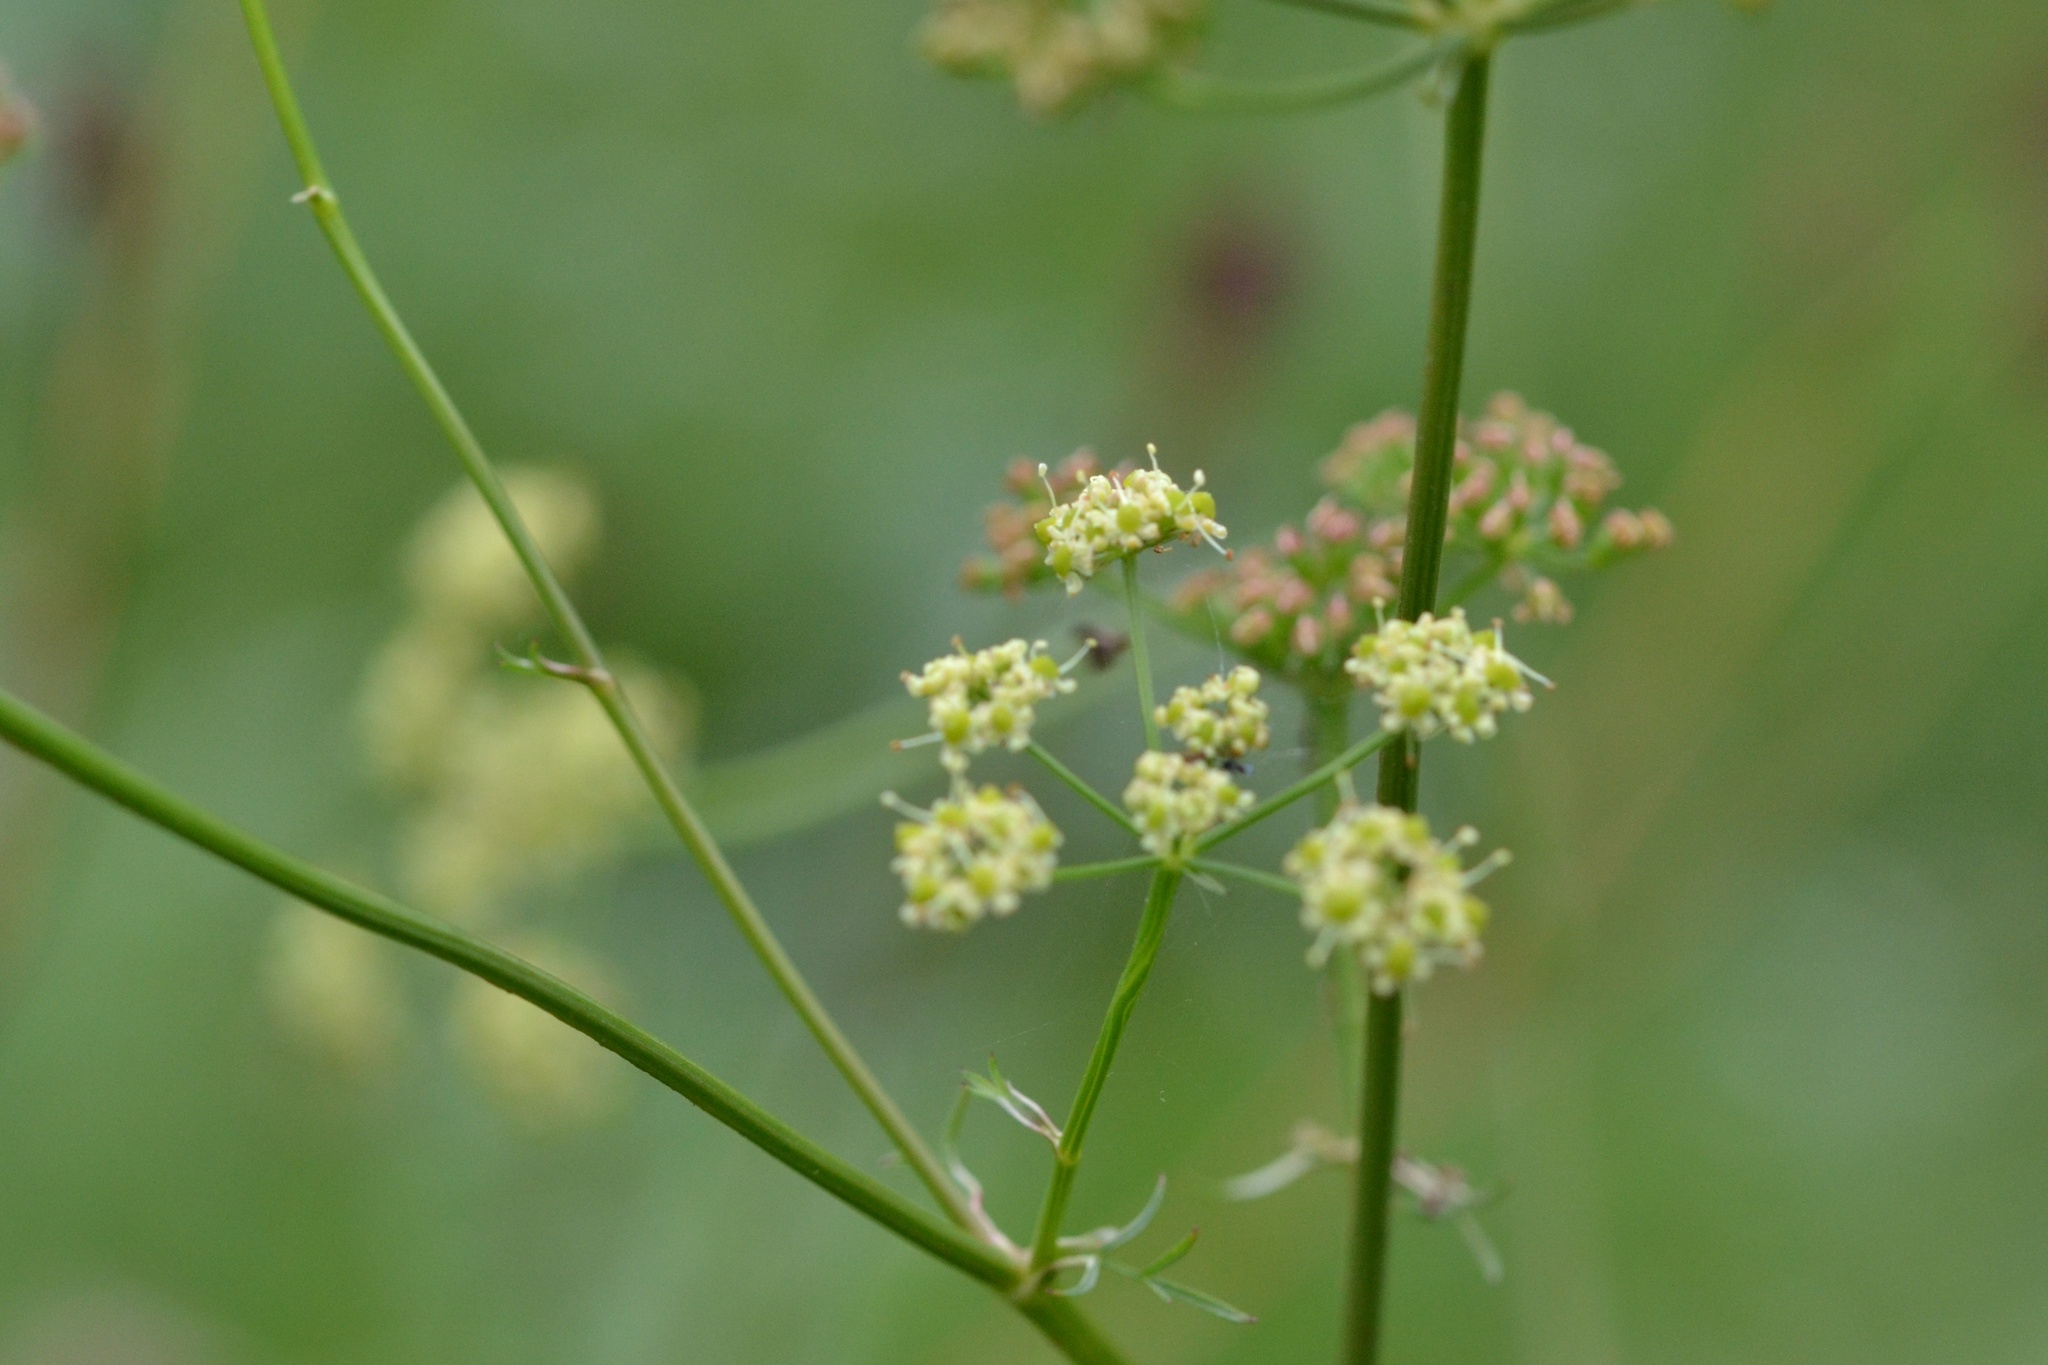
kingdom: Plantae
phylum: Tracheophyta
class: Magnoliopsida
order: Apiales
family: Apiaceae
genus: Silaum
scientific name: Silaum silaus
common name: Pepper-saxifrage
